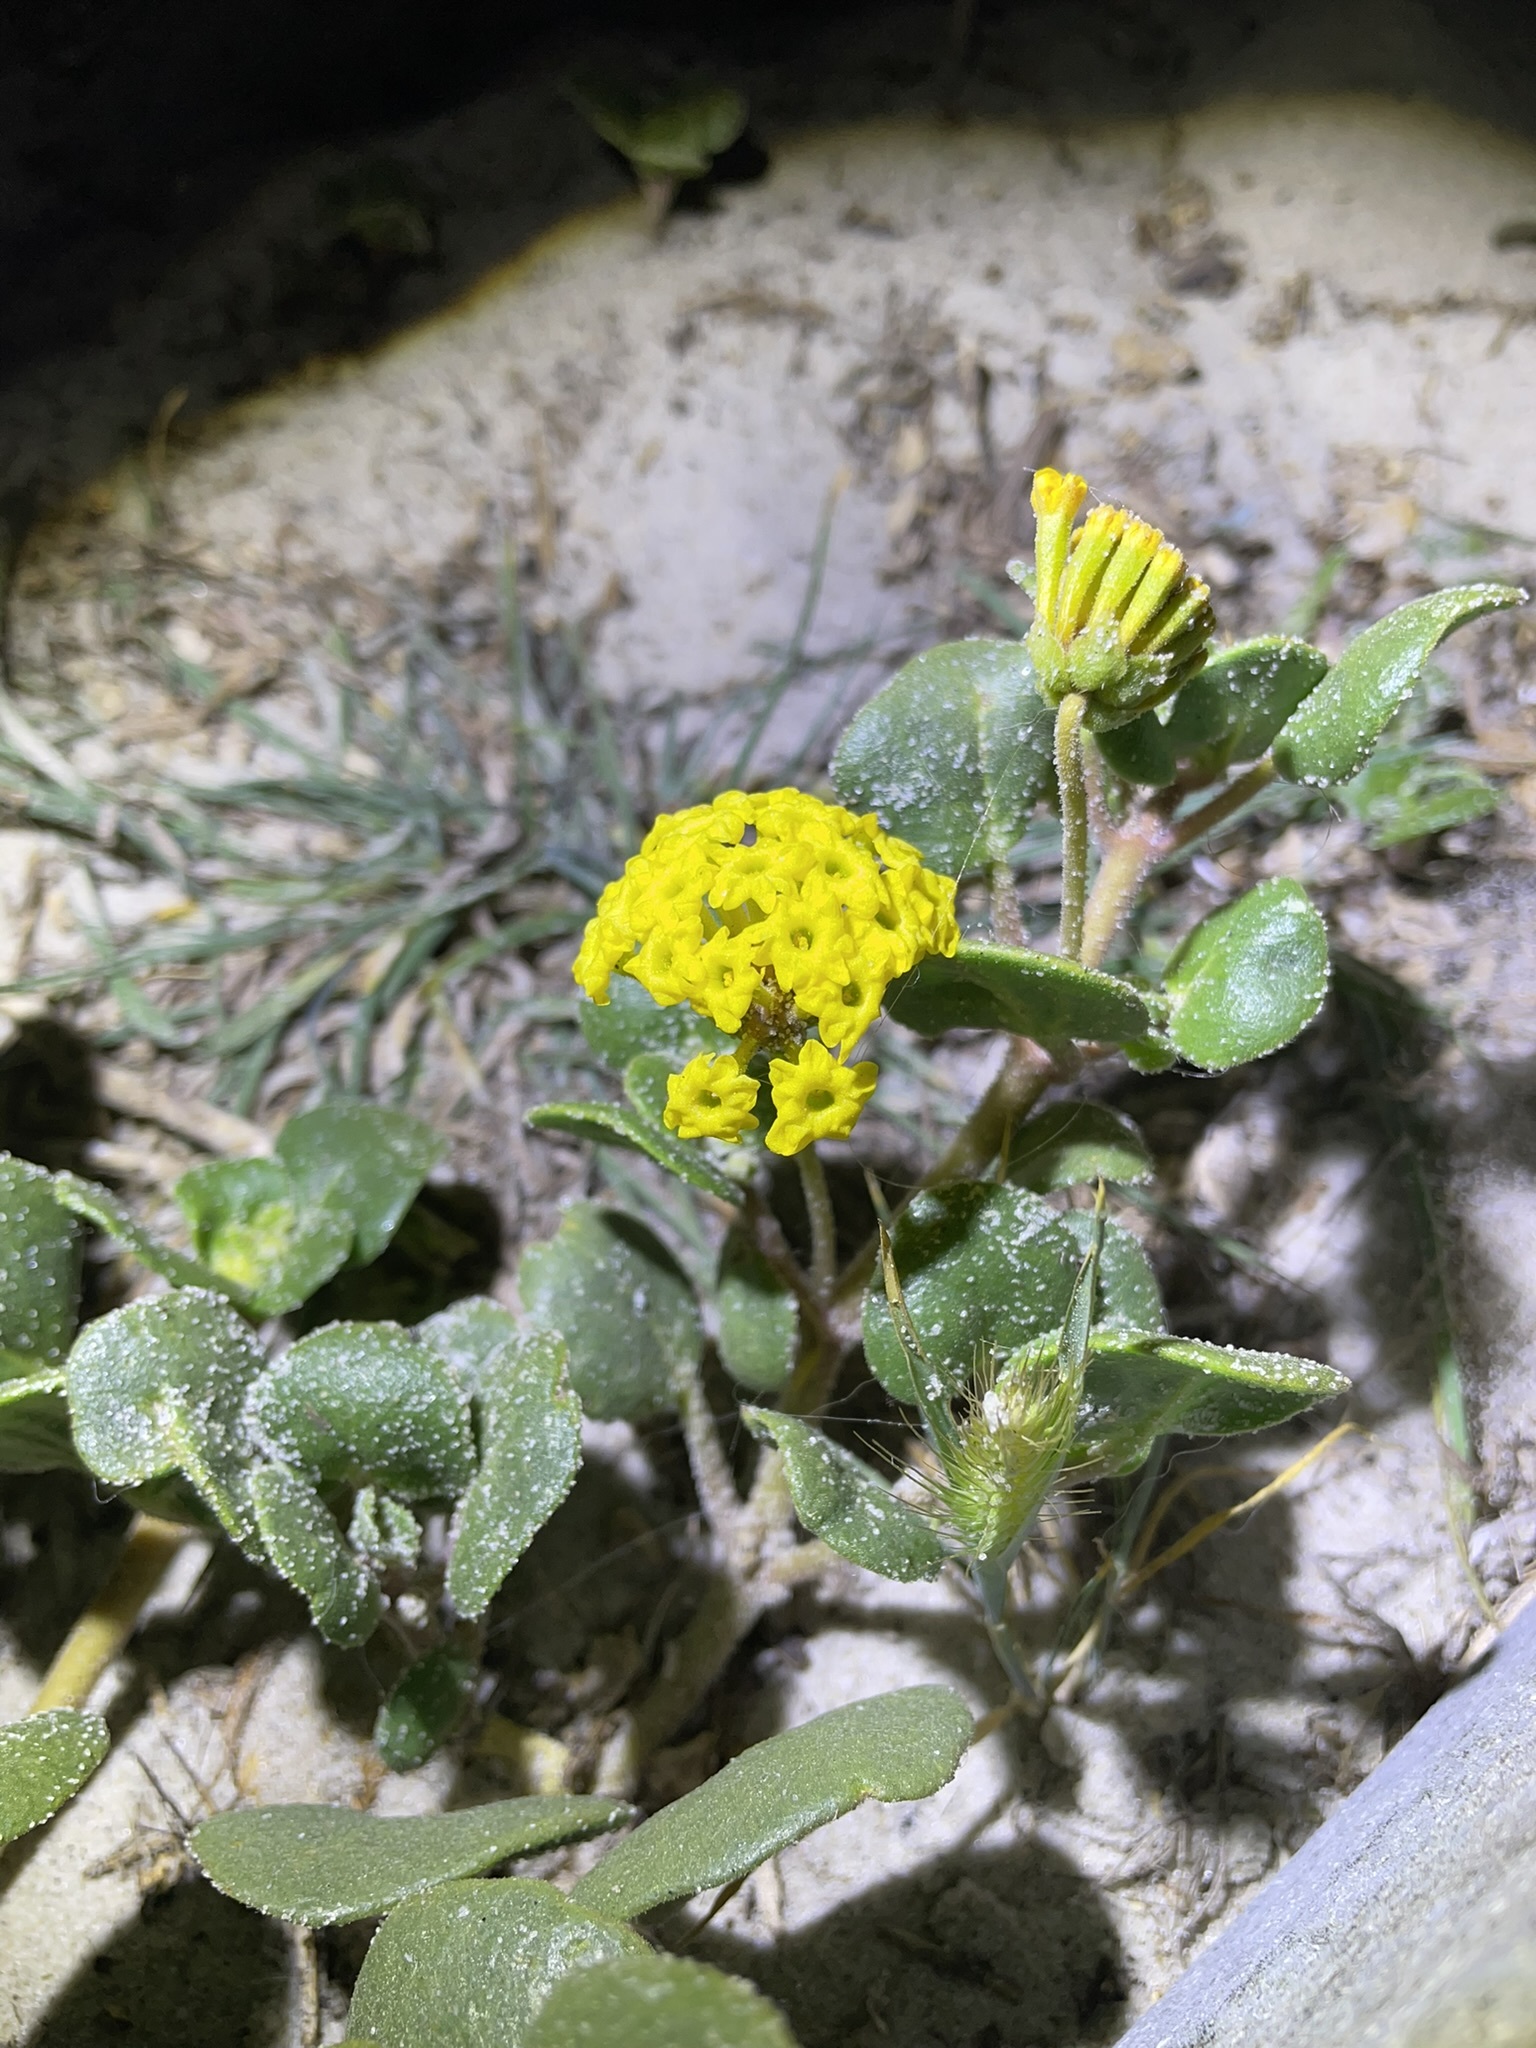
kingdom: Plantae
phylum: Tracheophyta
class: Magnoliopsida
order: Caryophyllales
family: Nyctaginaceae
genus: Abronia
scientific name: Abronia latifolia
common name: Yellow sand-verbena
